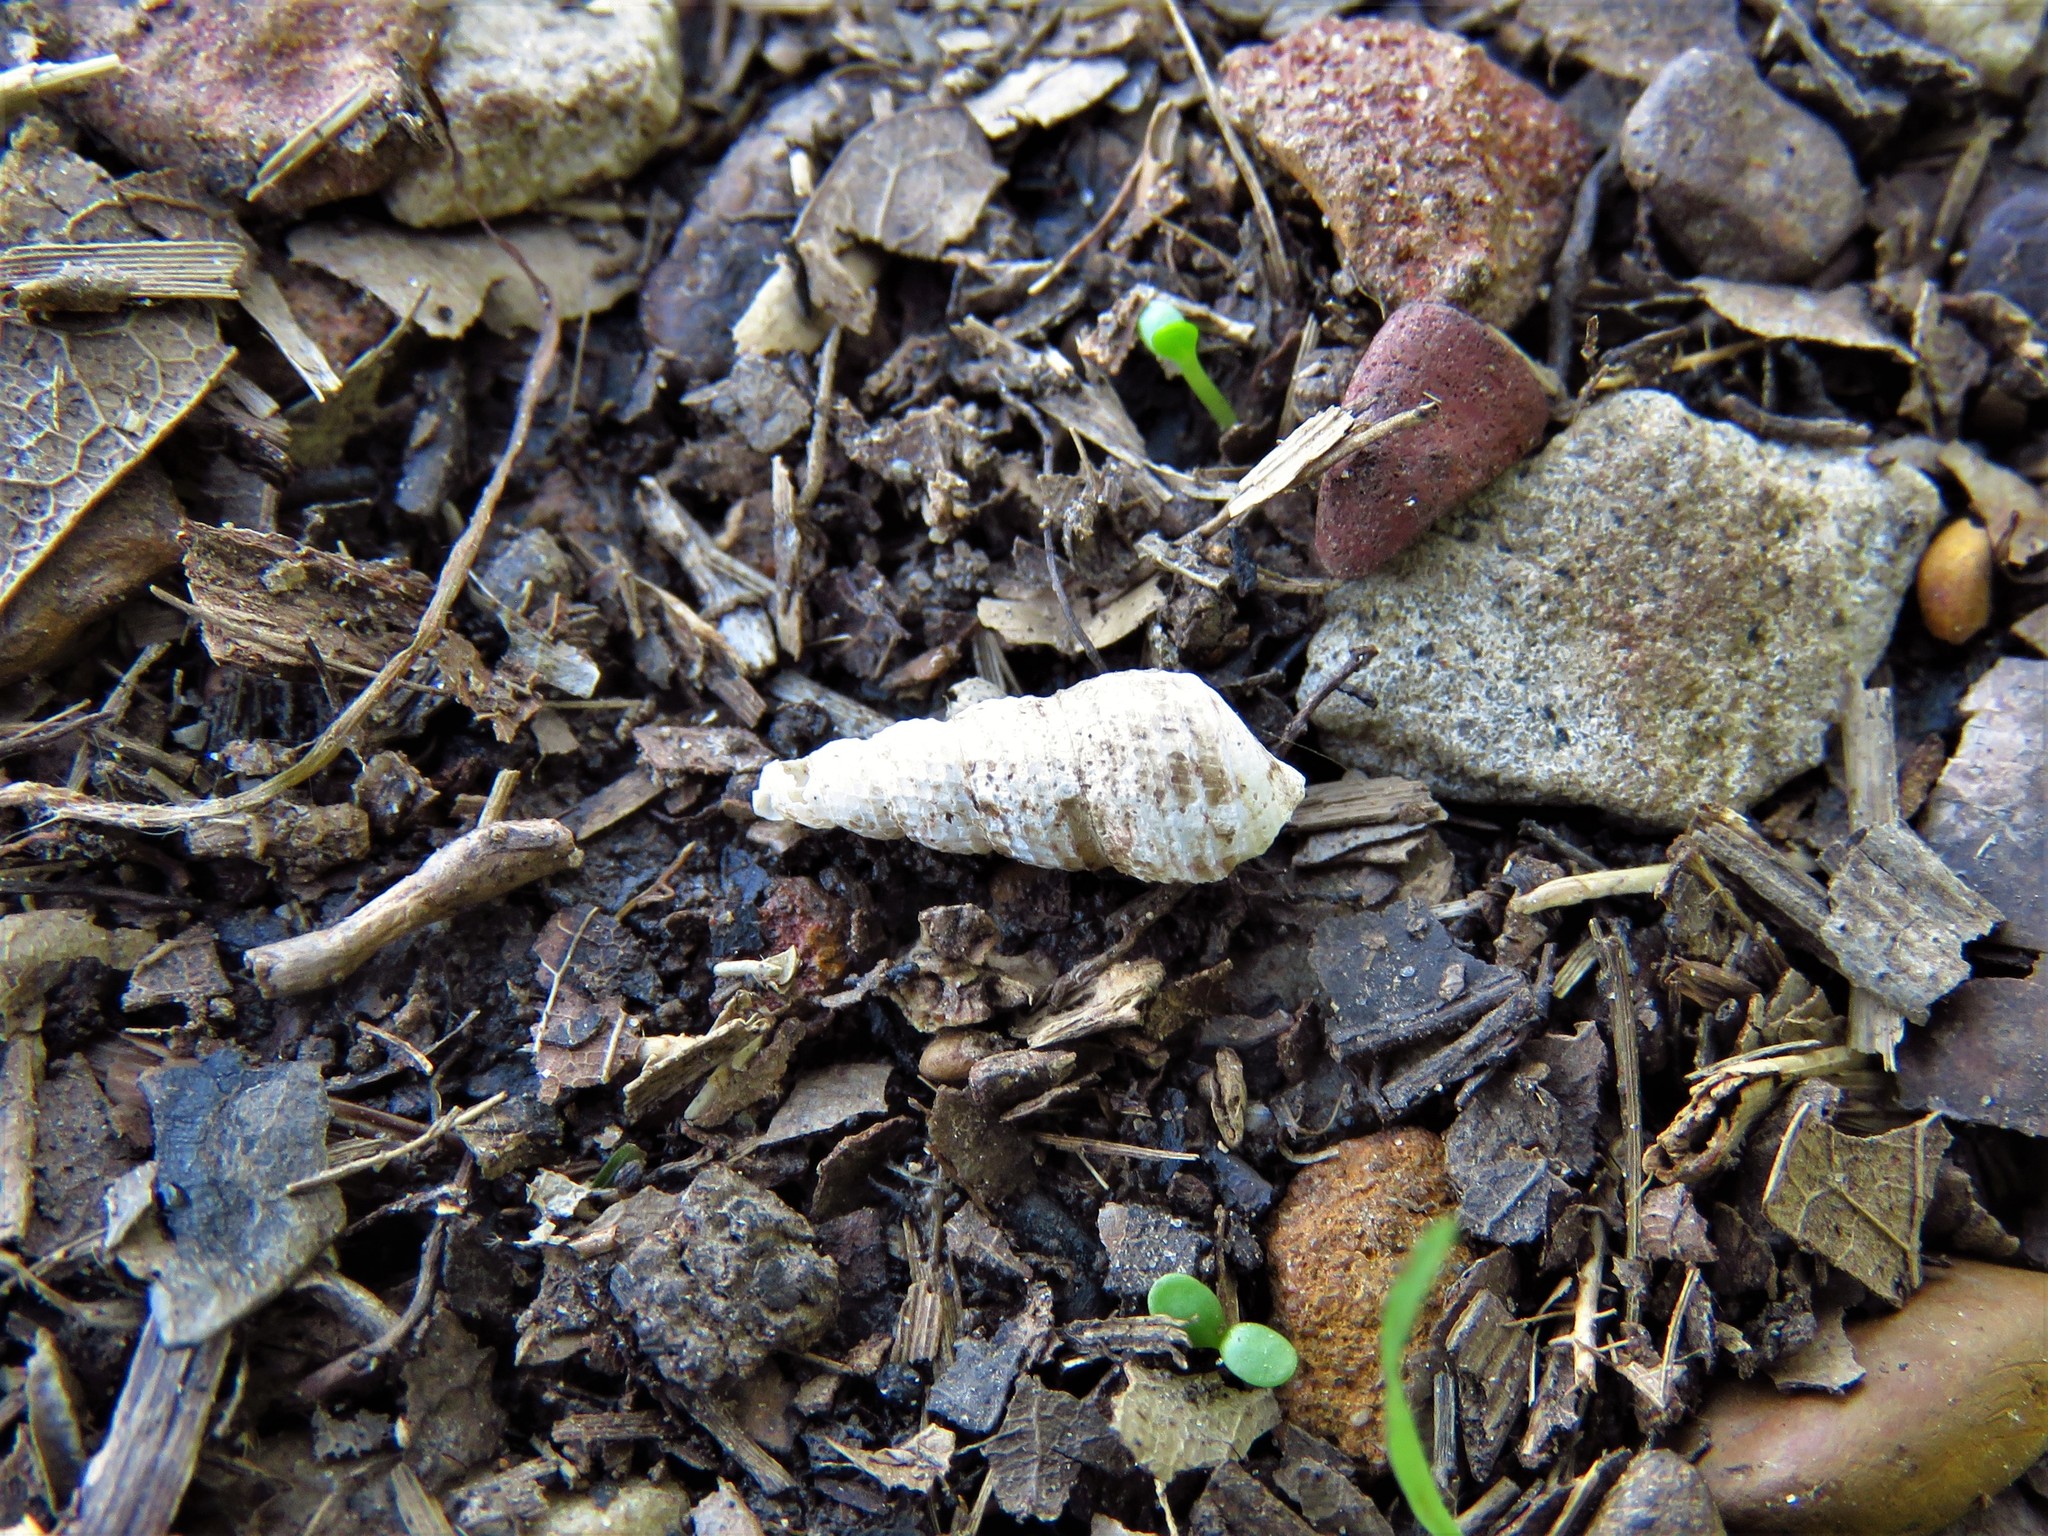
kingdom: Animalia
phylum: Mollusca
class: Gastropoda
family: Thiaridae
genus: Melanoides
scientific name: Melanoides tuberculata
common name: Red-rim melania
